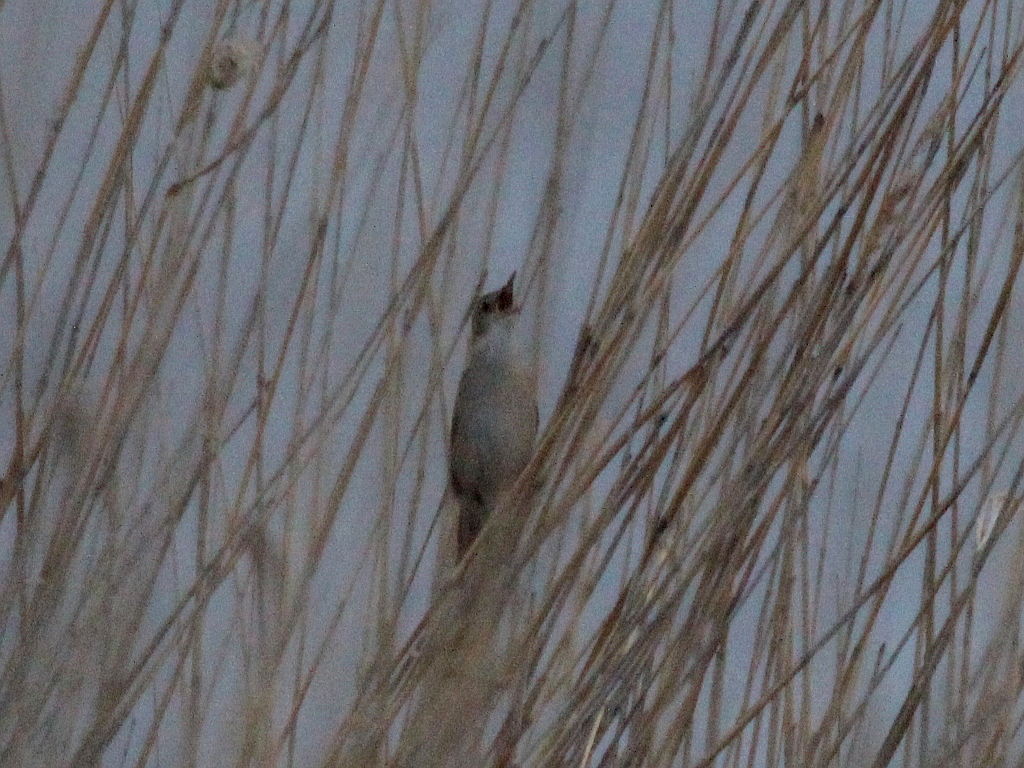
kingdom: Animalia
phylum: Chordata
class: Aves
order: Passeriformes
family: Locustellidae
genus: Locustella
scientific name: Locustella luscinioides
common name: Savi's warbler
